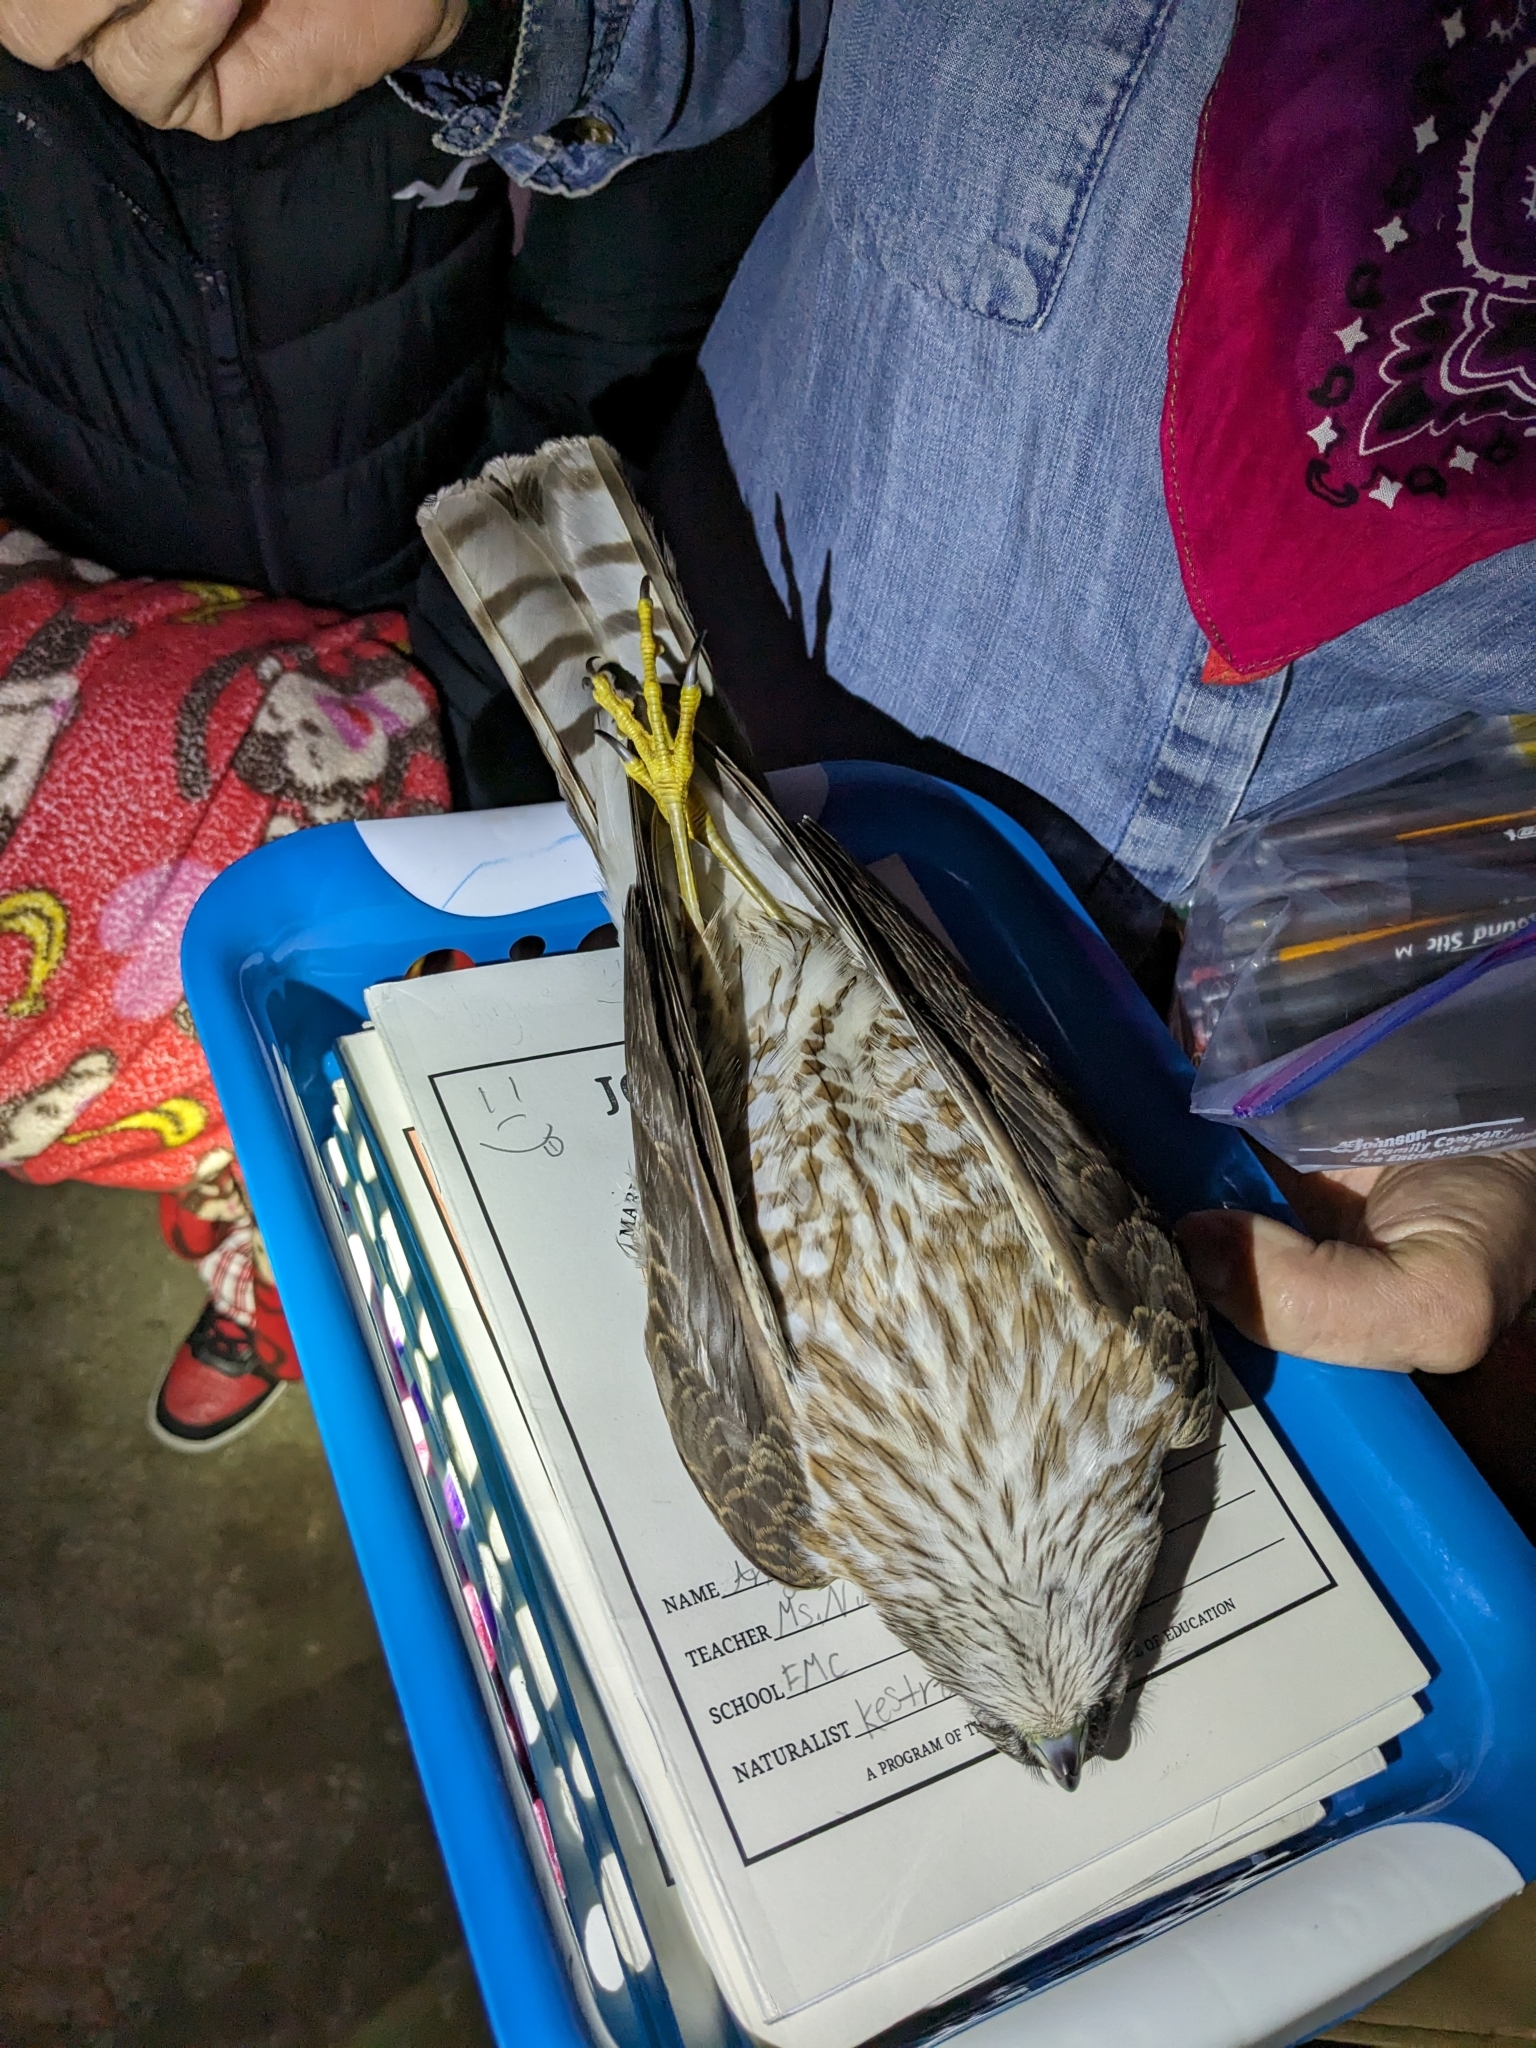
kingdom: Animalia
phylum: Chordata
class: Aves
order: Accipitriformes
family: Accipitridae
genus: Accipiter
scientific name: Accipiter striatus
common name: Sharp-shinned hawk
